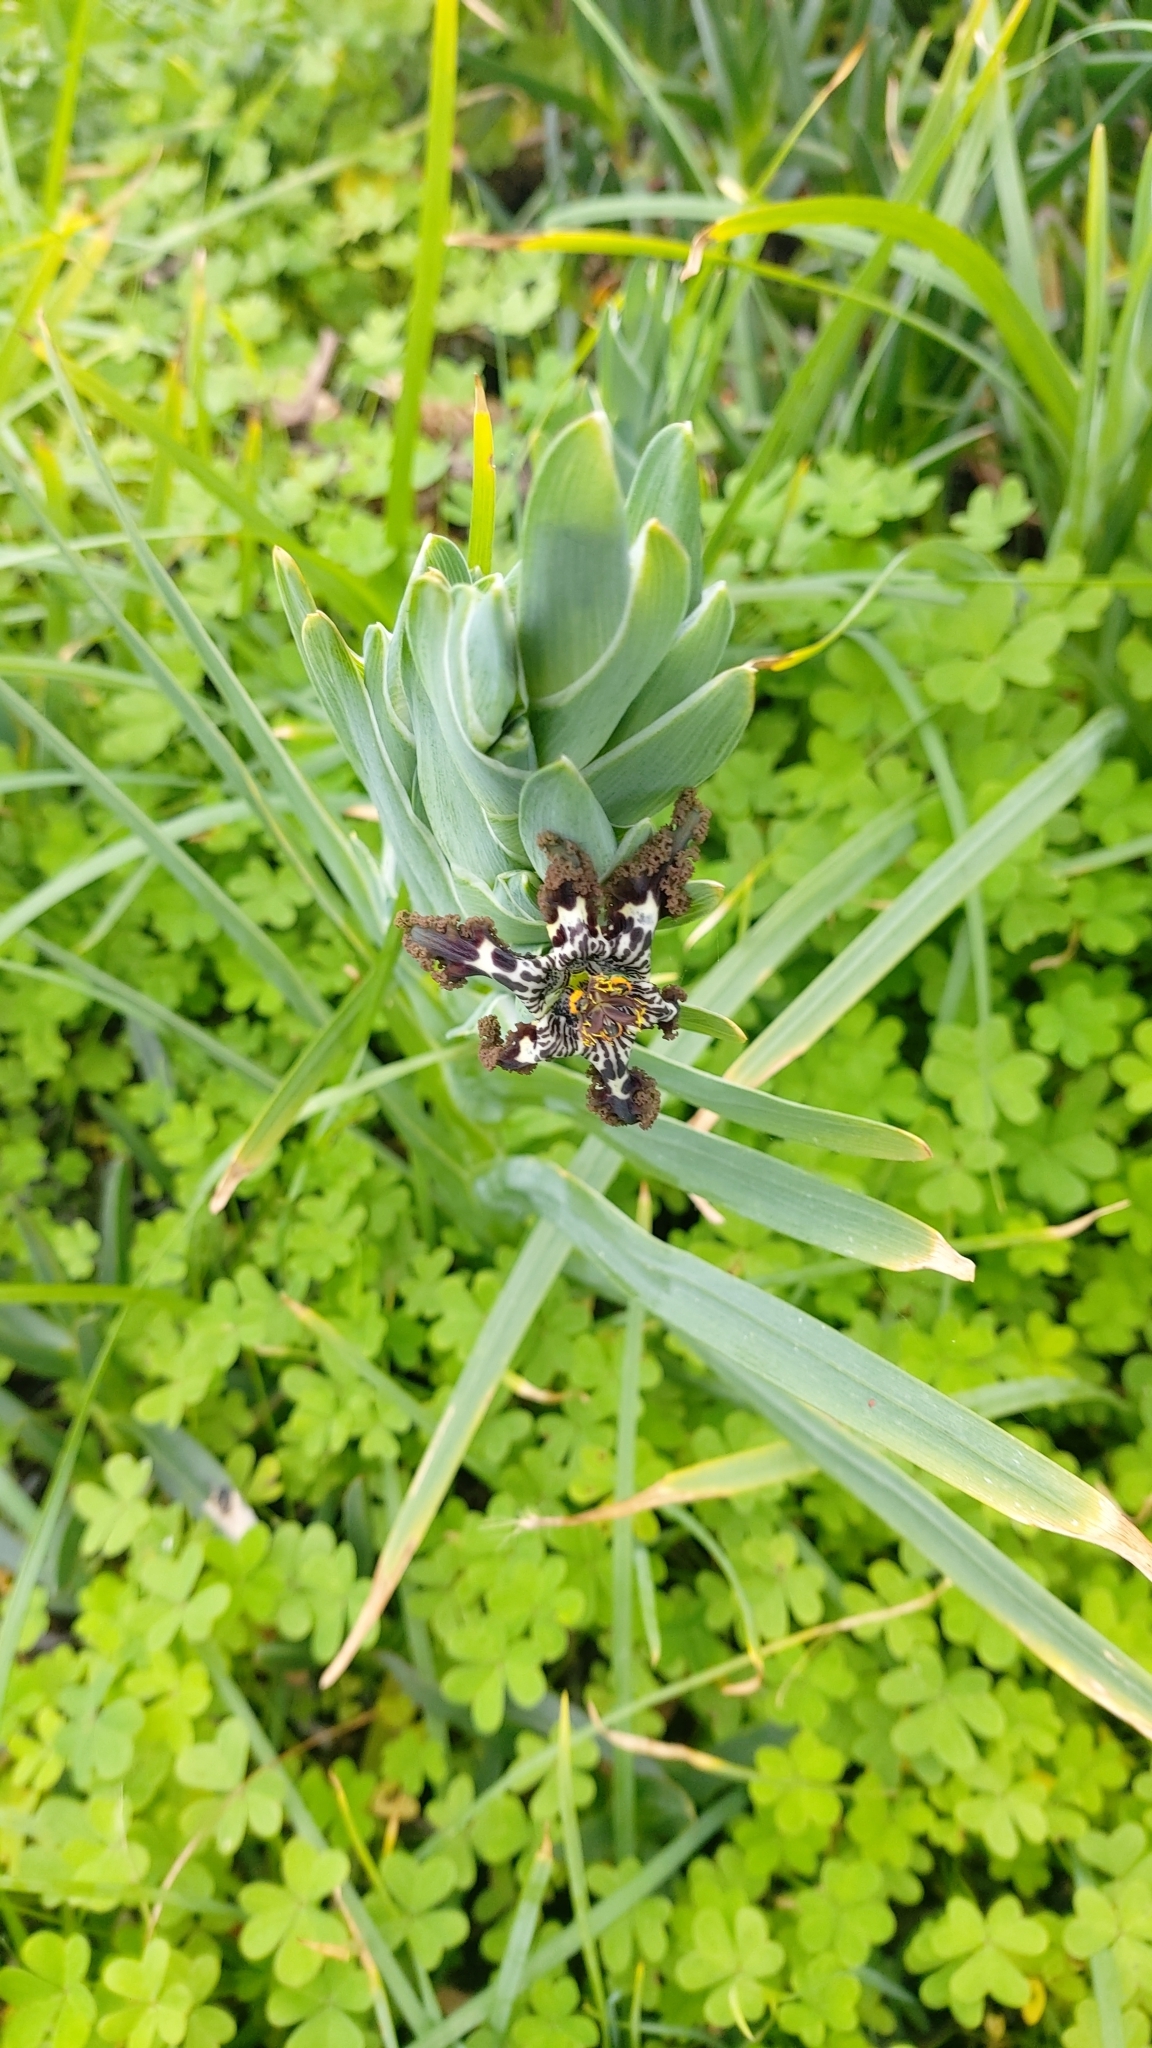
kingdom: Plantae
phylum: Tracheophyta
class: Liliopsida
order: Asparagales
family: Iridaceae
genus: Ferraria
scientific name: Ferraria crispa
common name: Black-flag
